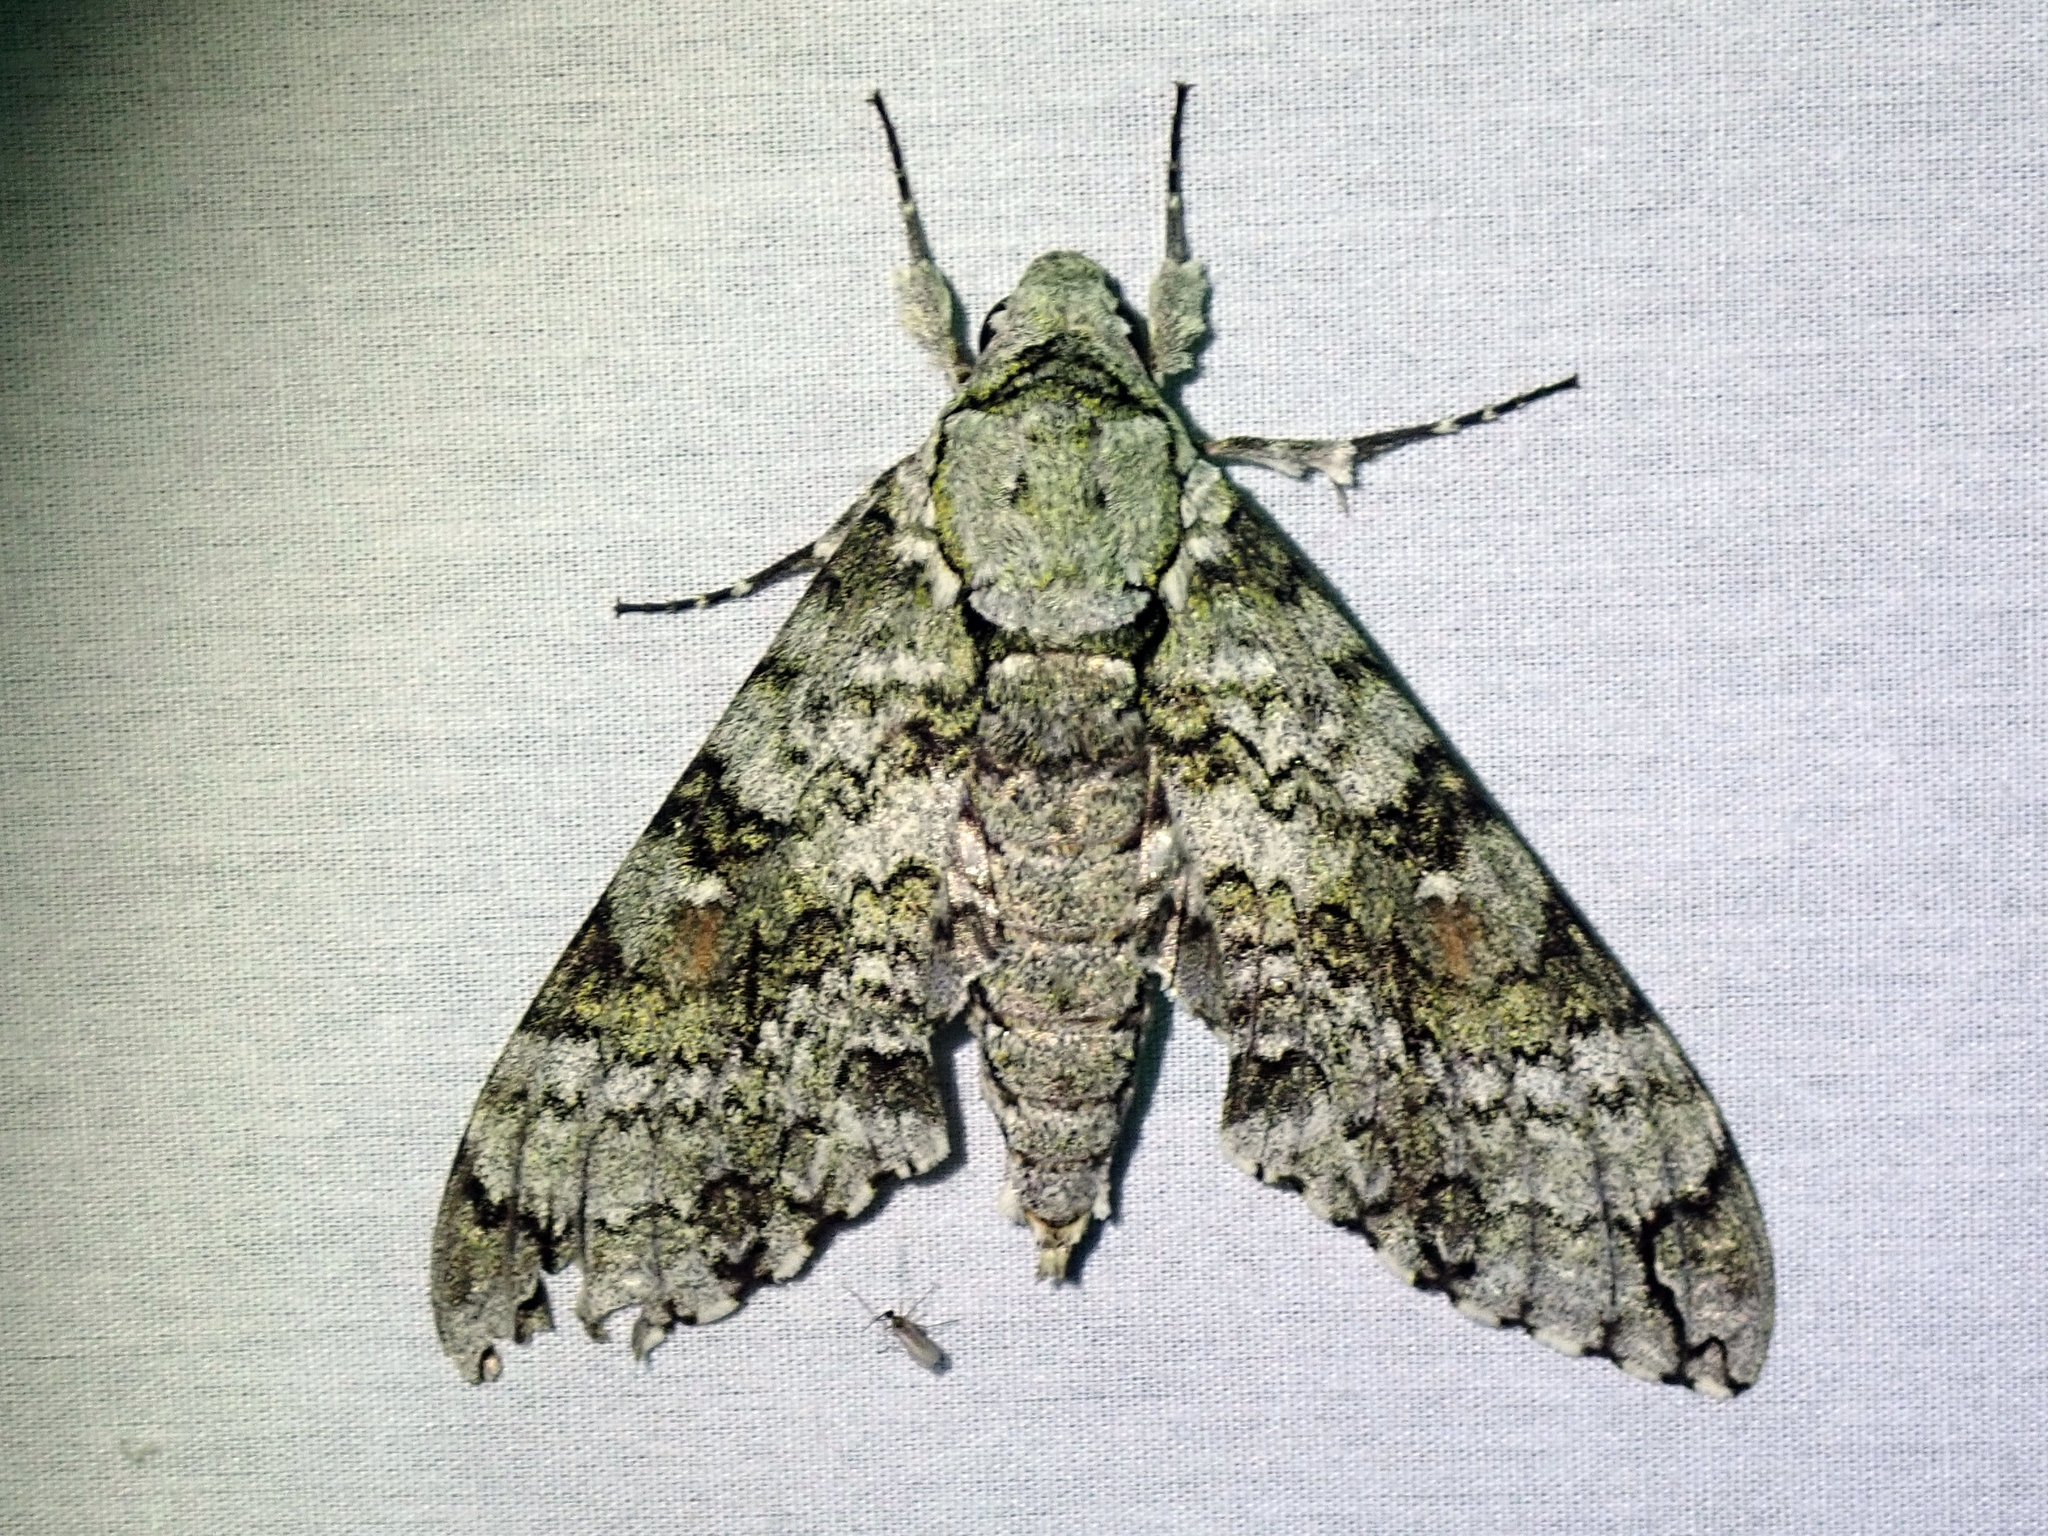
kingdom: Animalia
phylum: Arthropoda
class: Insecta
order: Lepidoptera
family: Sphingidae
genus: Manduca
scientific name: Manduca florestan
